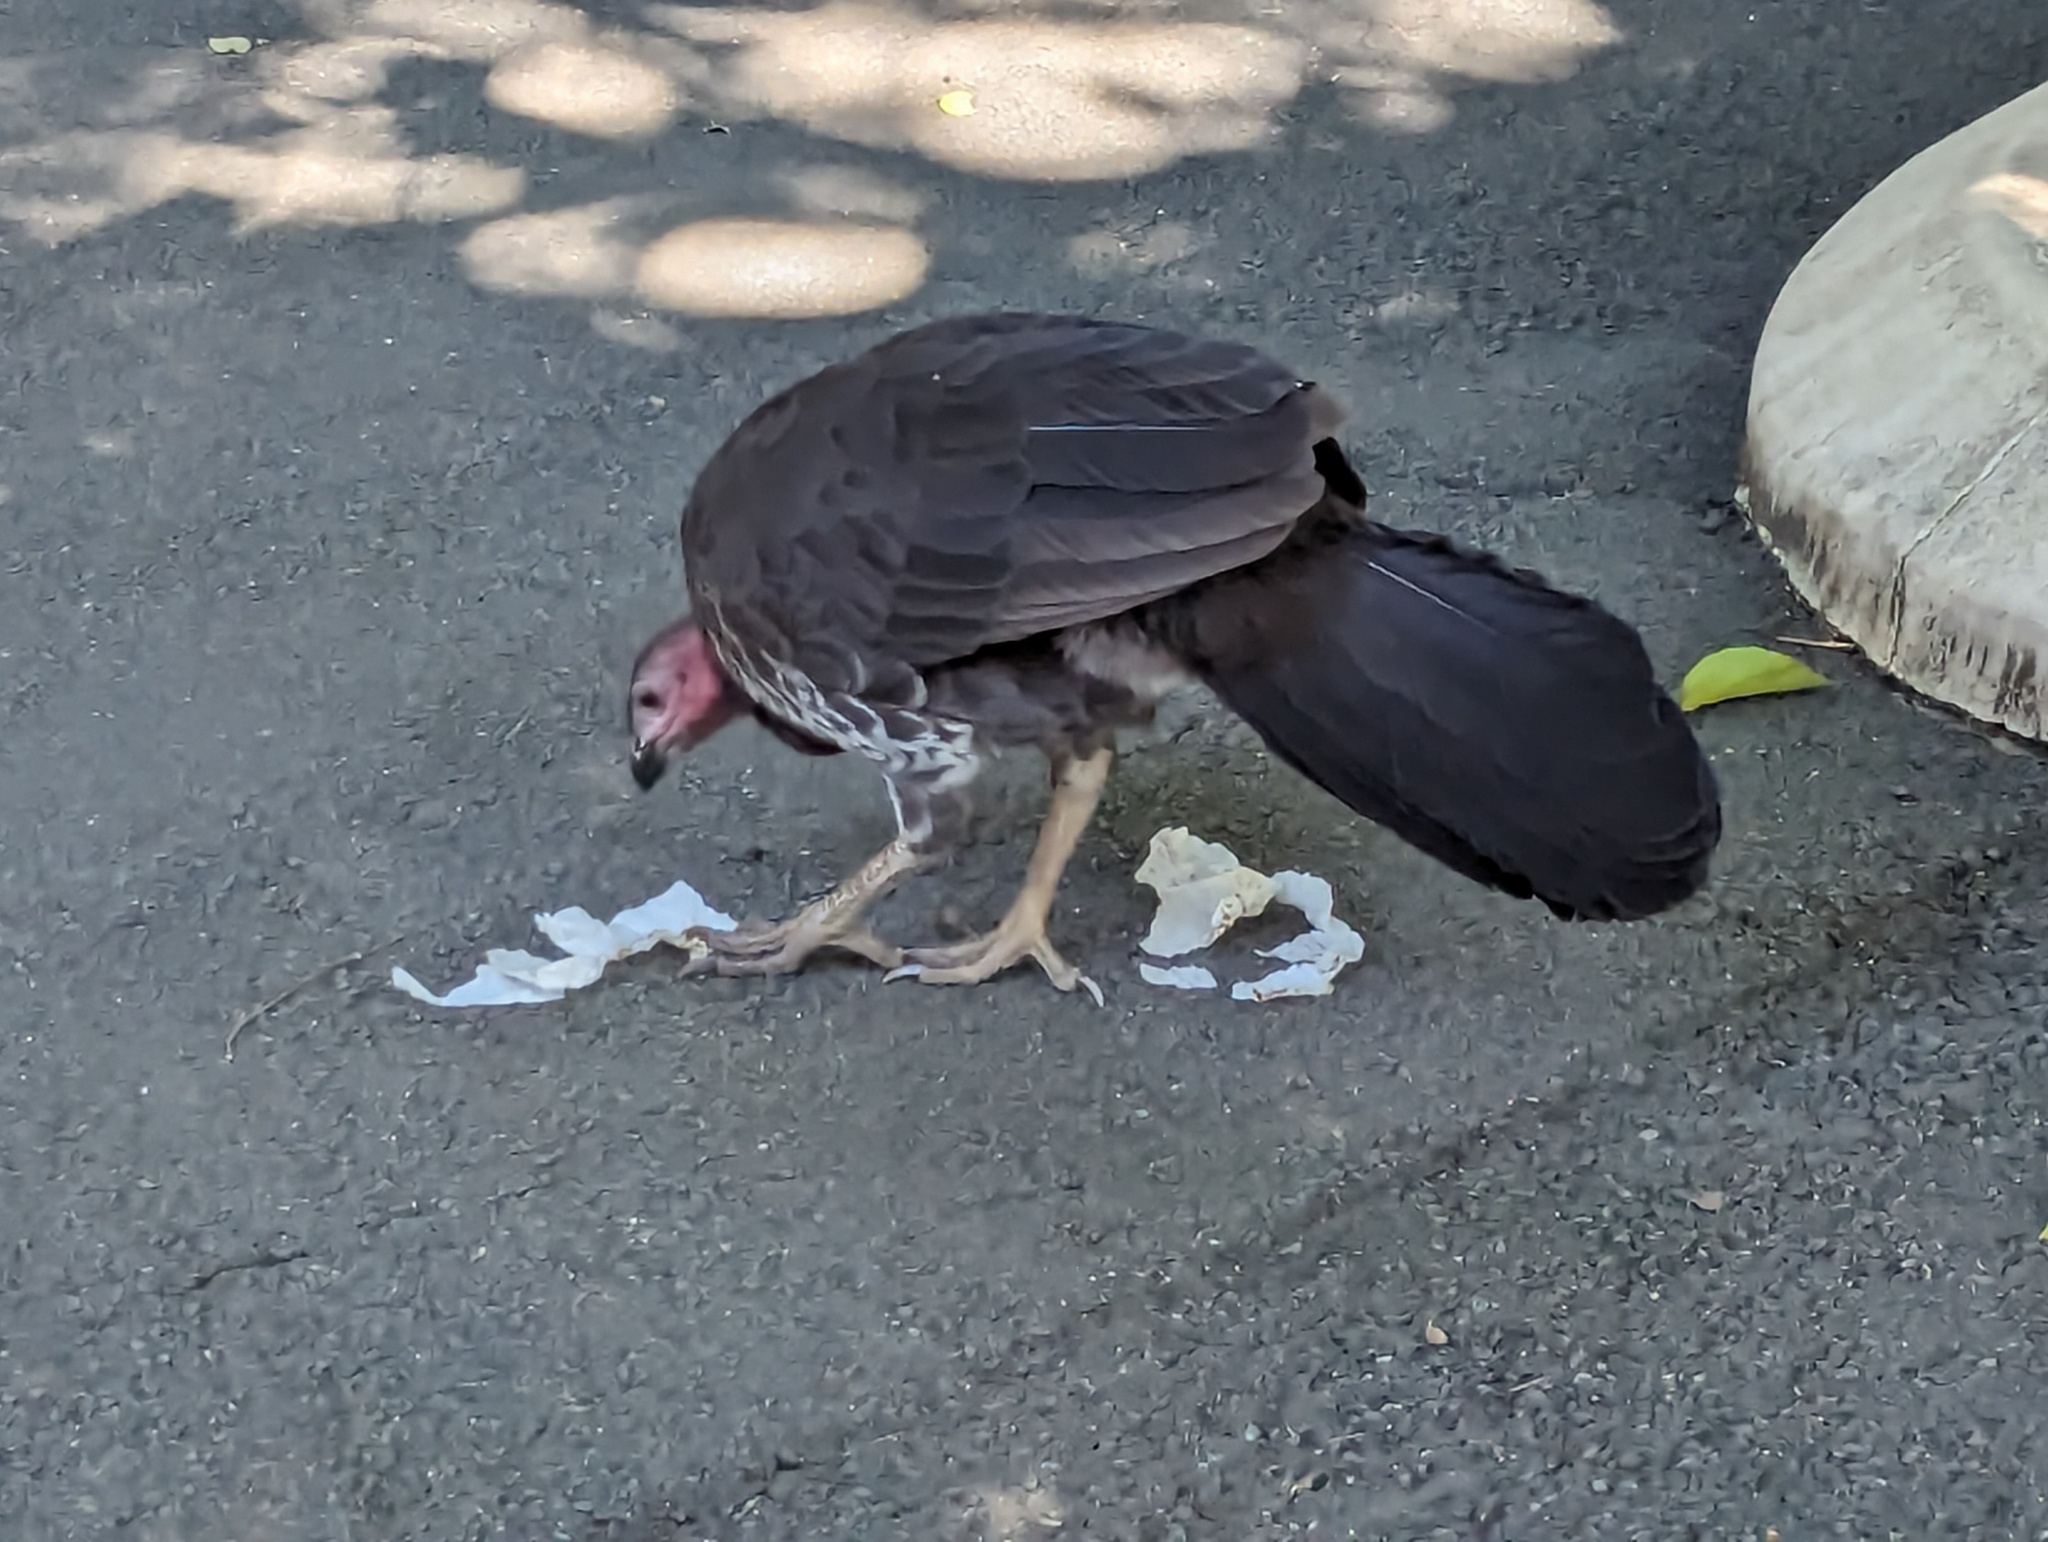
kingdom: Animalia
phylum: Chordata
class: Aves
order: Galliformes
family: Megapodiidae
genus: Alectura
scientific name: Alectura lathami
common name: Australian brushturkey
